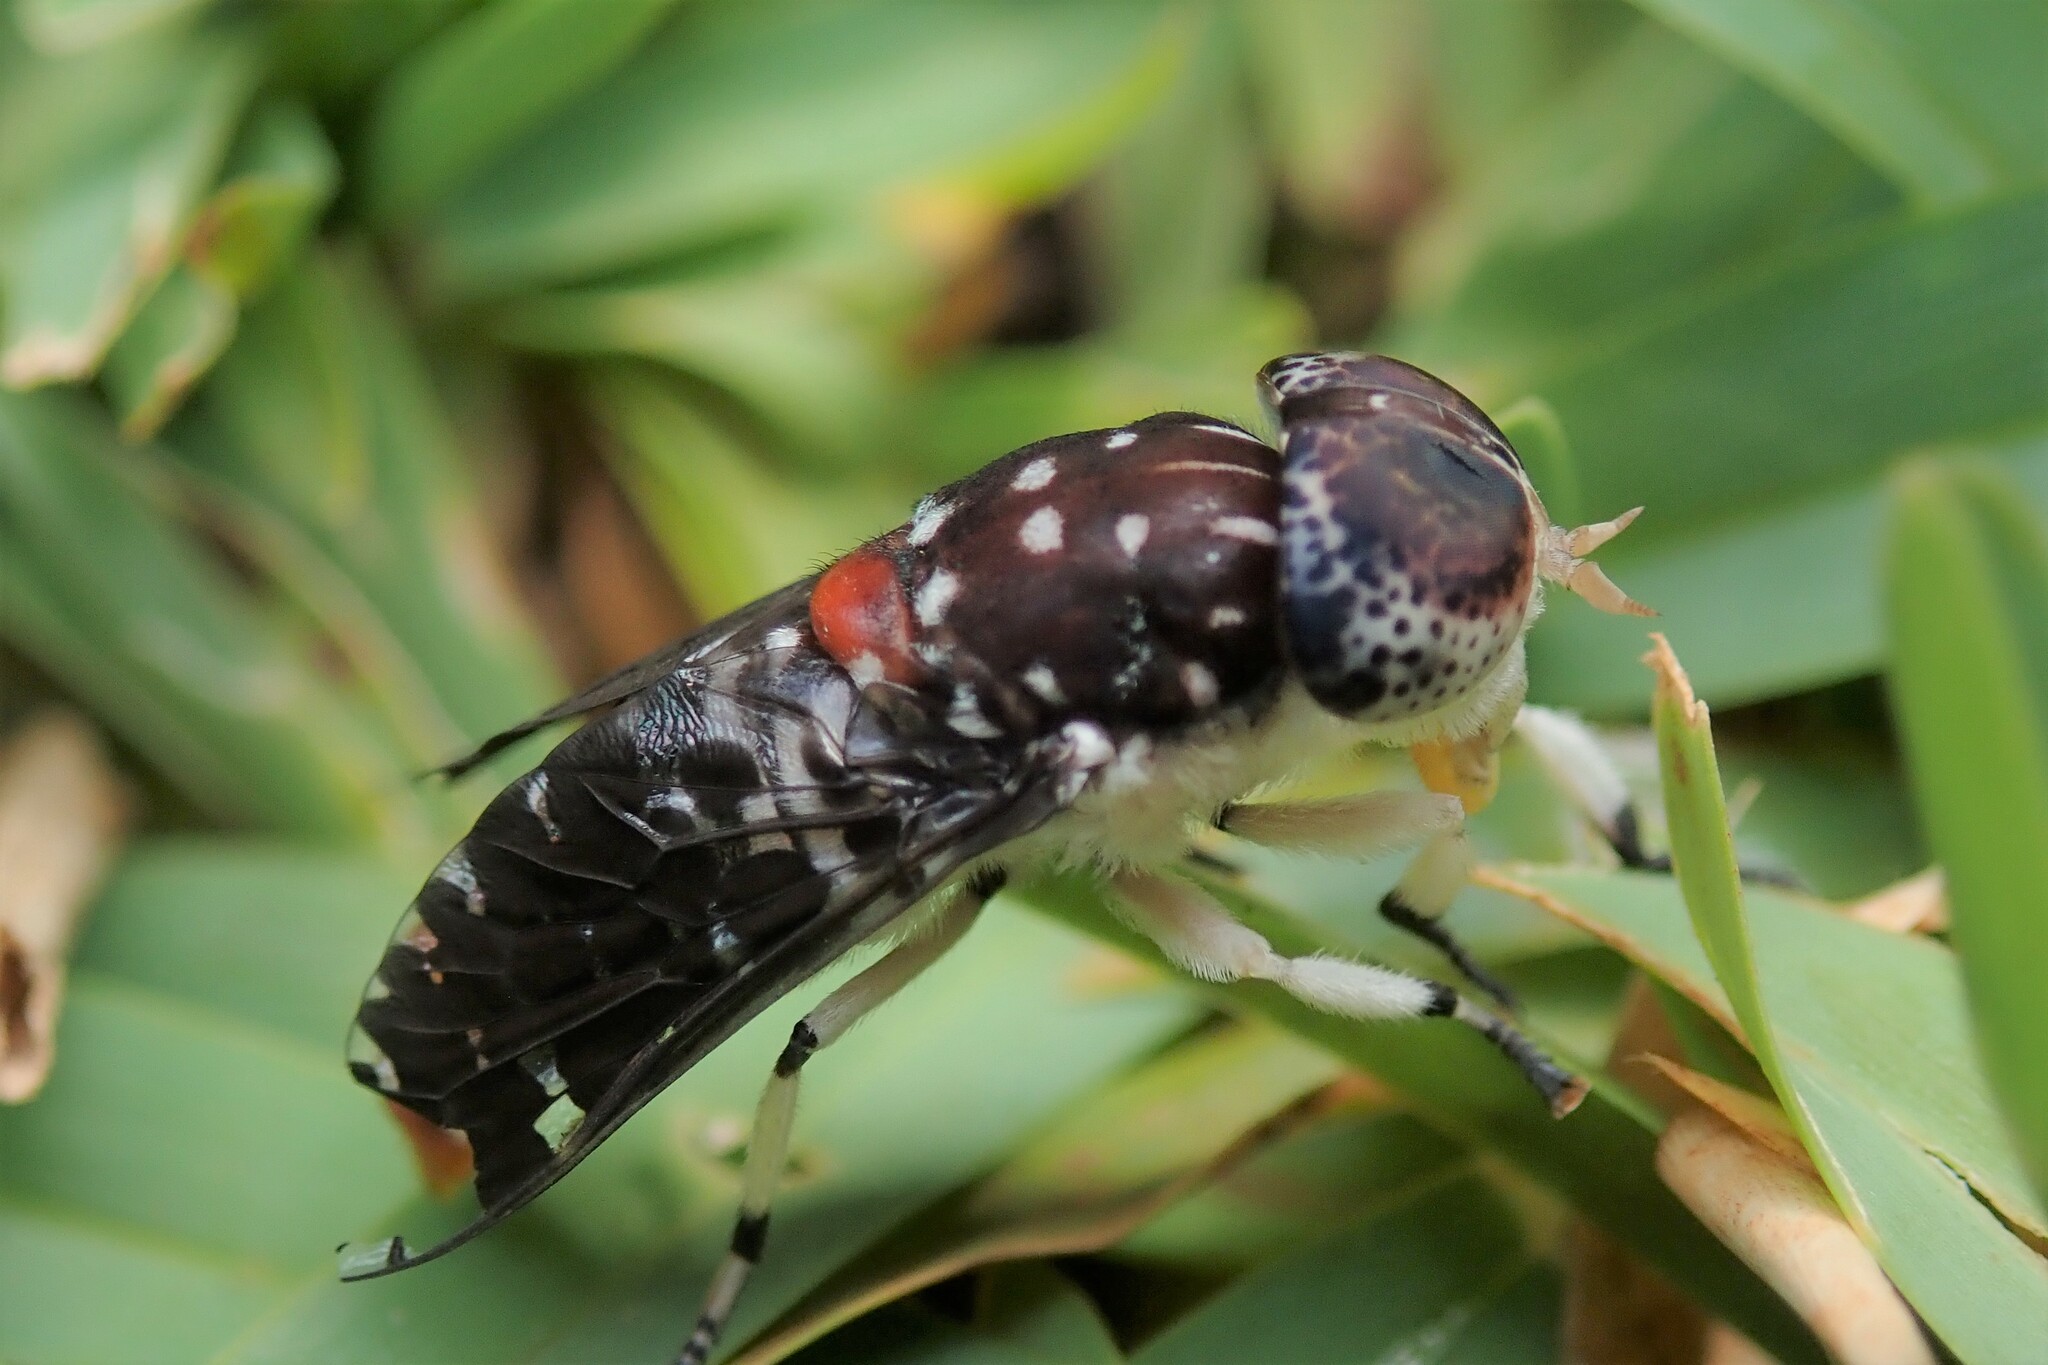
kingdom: Animalia
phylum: Arthropoda
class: Insecta
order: Diptera
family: Tabanidae
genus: Euancala
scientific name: Euancala maculatissima
